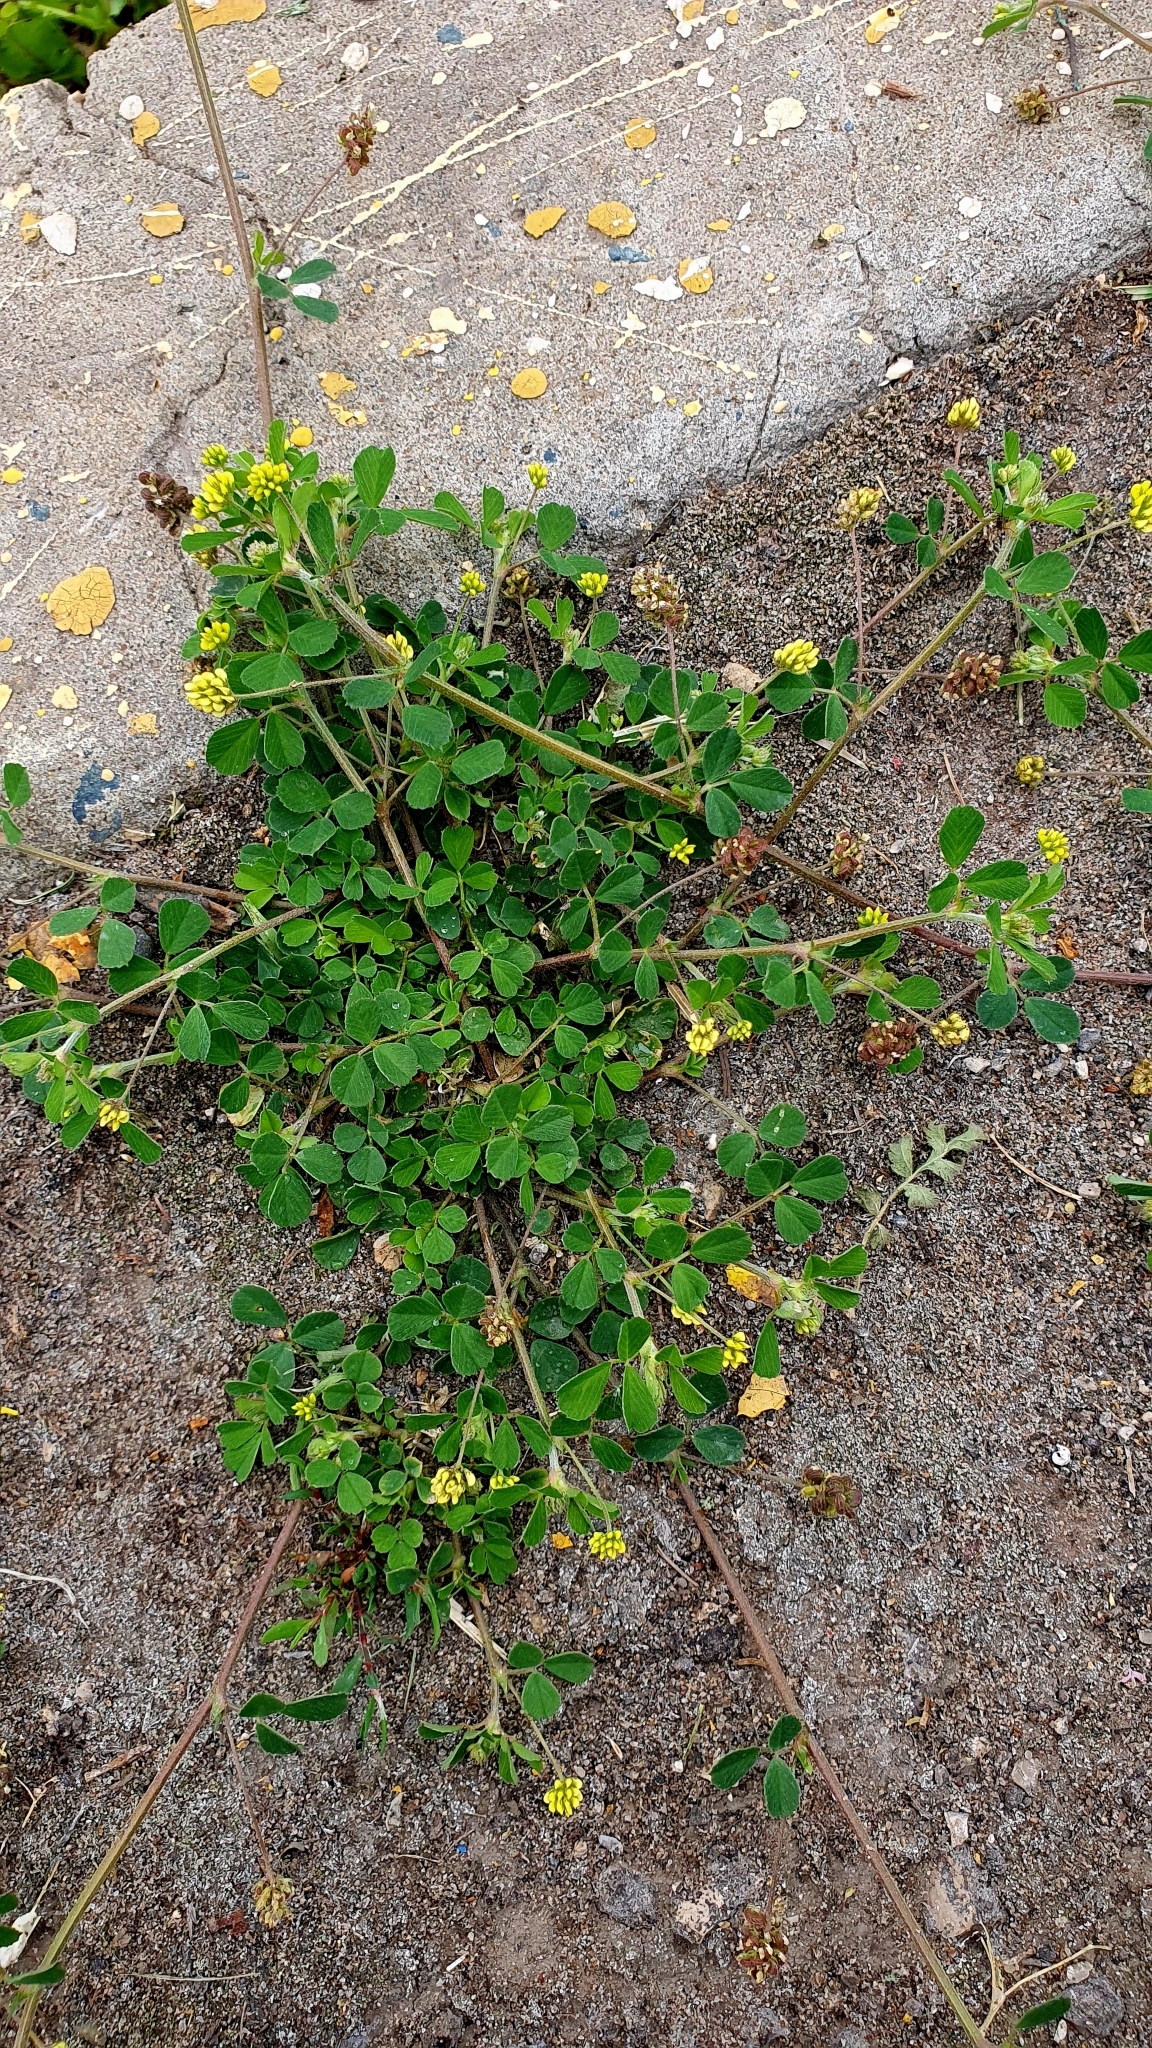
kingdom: Plantae
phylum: Tracheophyta
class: Magnoliopsida
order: Fabales
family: Fabaceae
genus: Medicago
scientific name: Medicago lupulina
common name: Black medick
